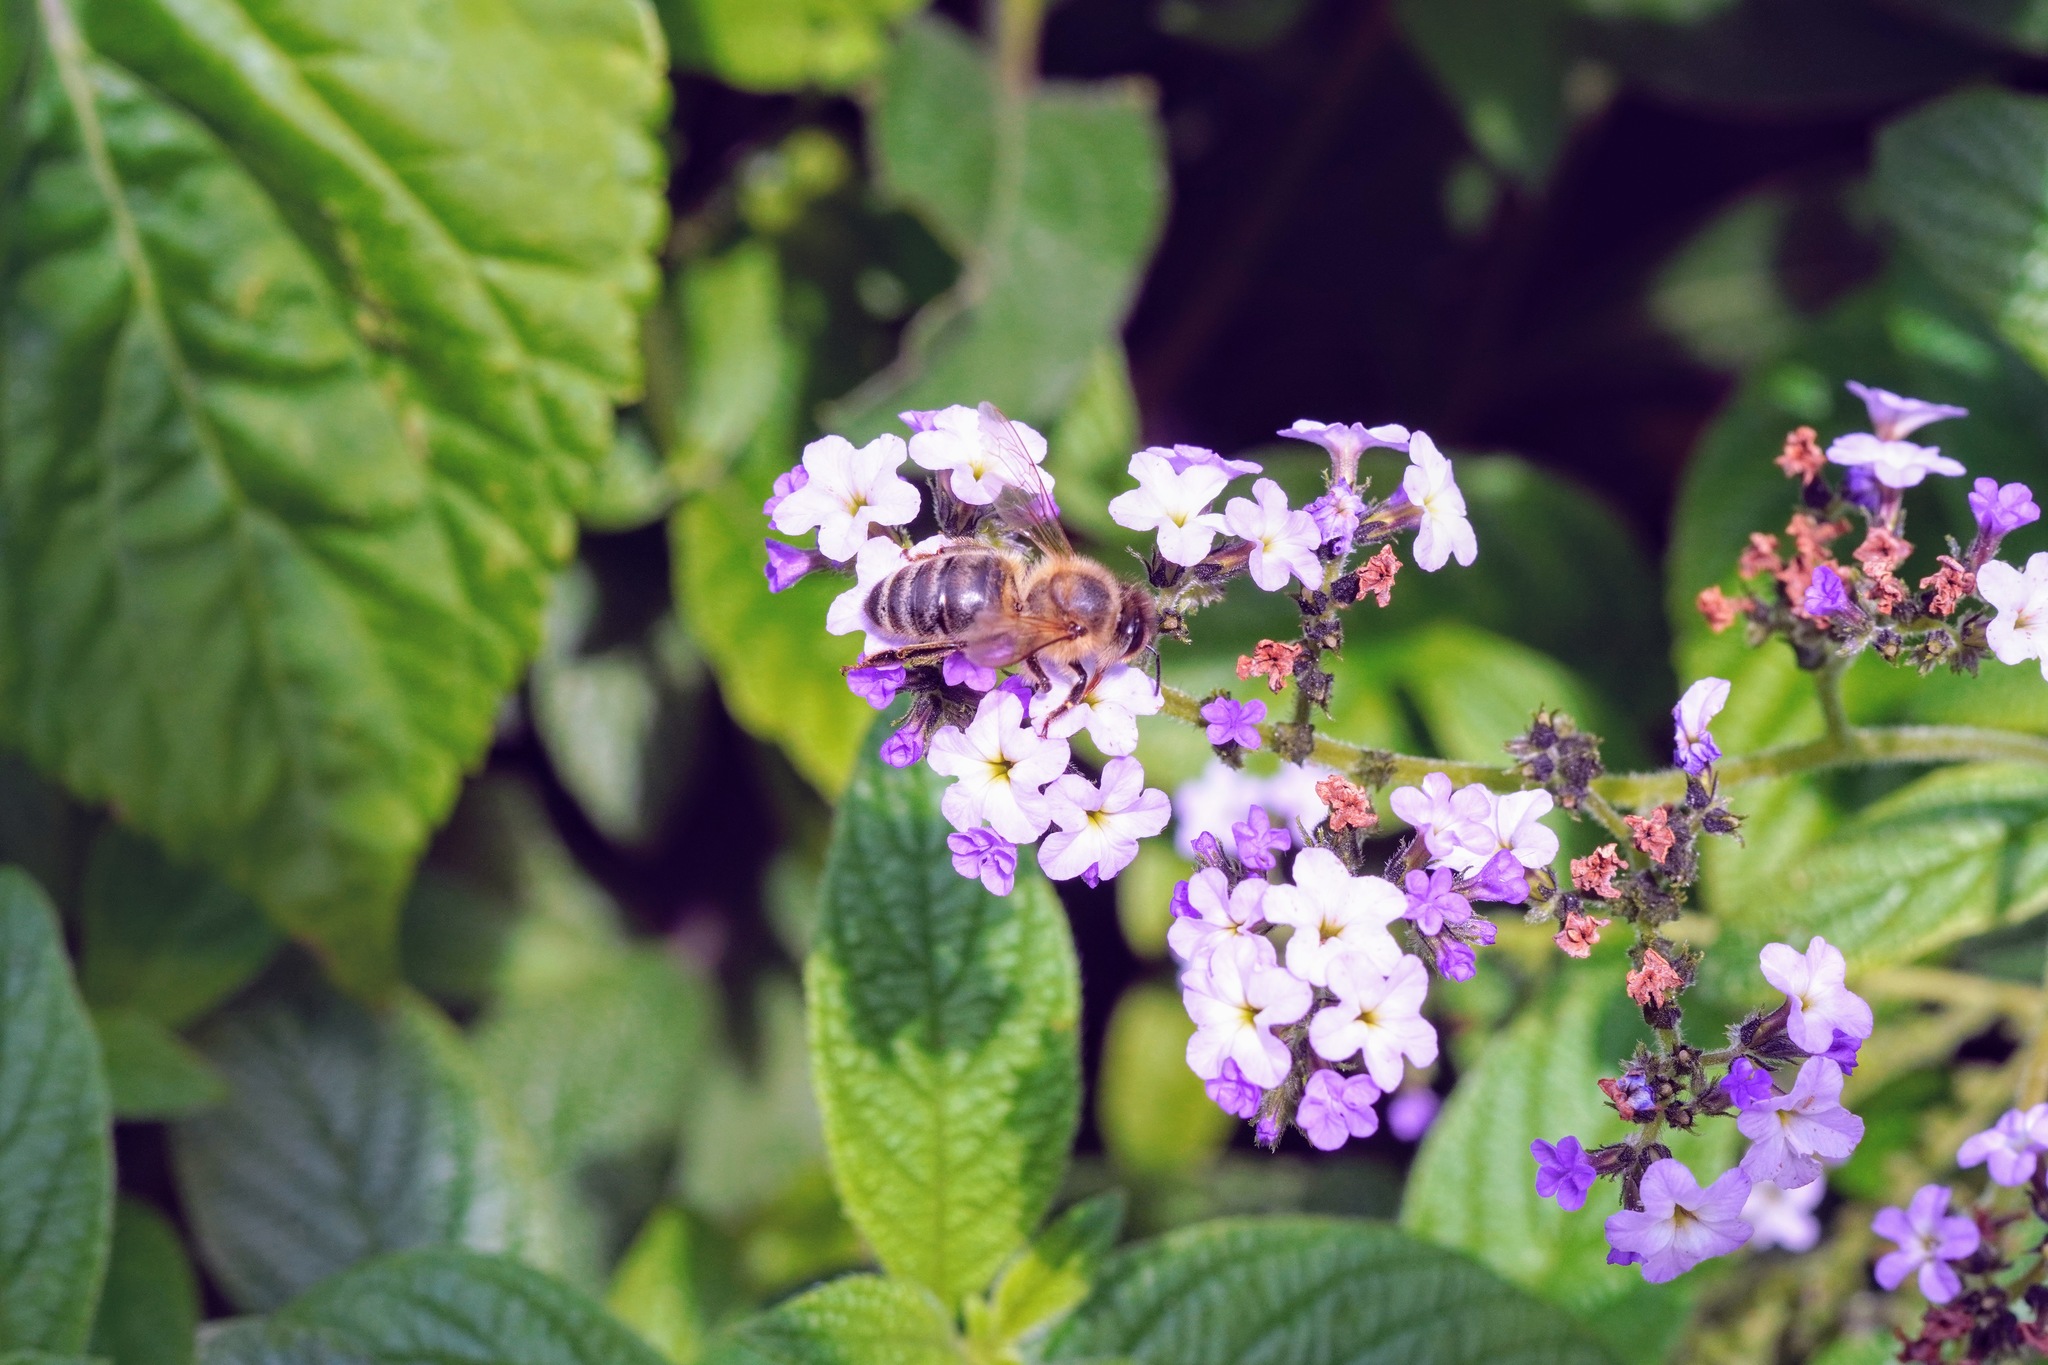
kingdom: Animalia
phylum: Arthropoda
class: Insecta
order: Hymenoptera
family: Apidae
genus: Apis
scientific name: Apis mellifera
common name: Honey bee
